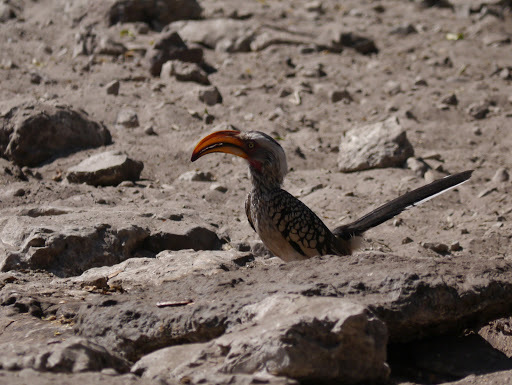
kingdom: Animalia
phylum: Chordata
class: Aves
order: Bucerotiformes
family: Bucerotidae
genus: Tockus
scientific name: Tockus leucomelas
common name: Southern yellow-billed hornbill
